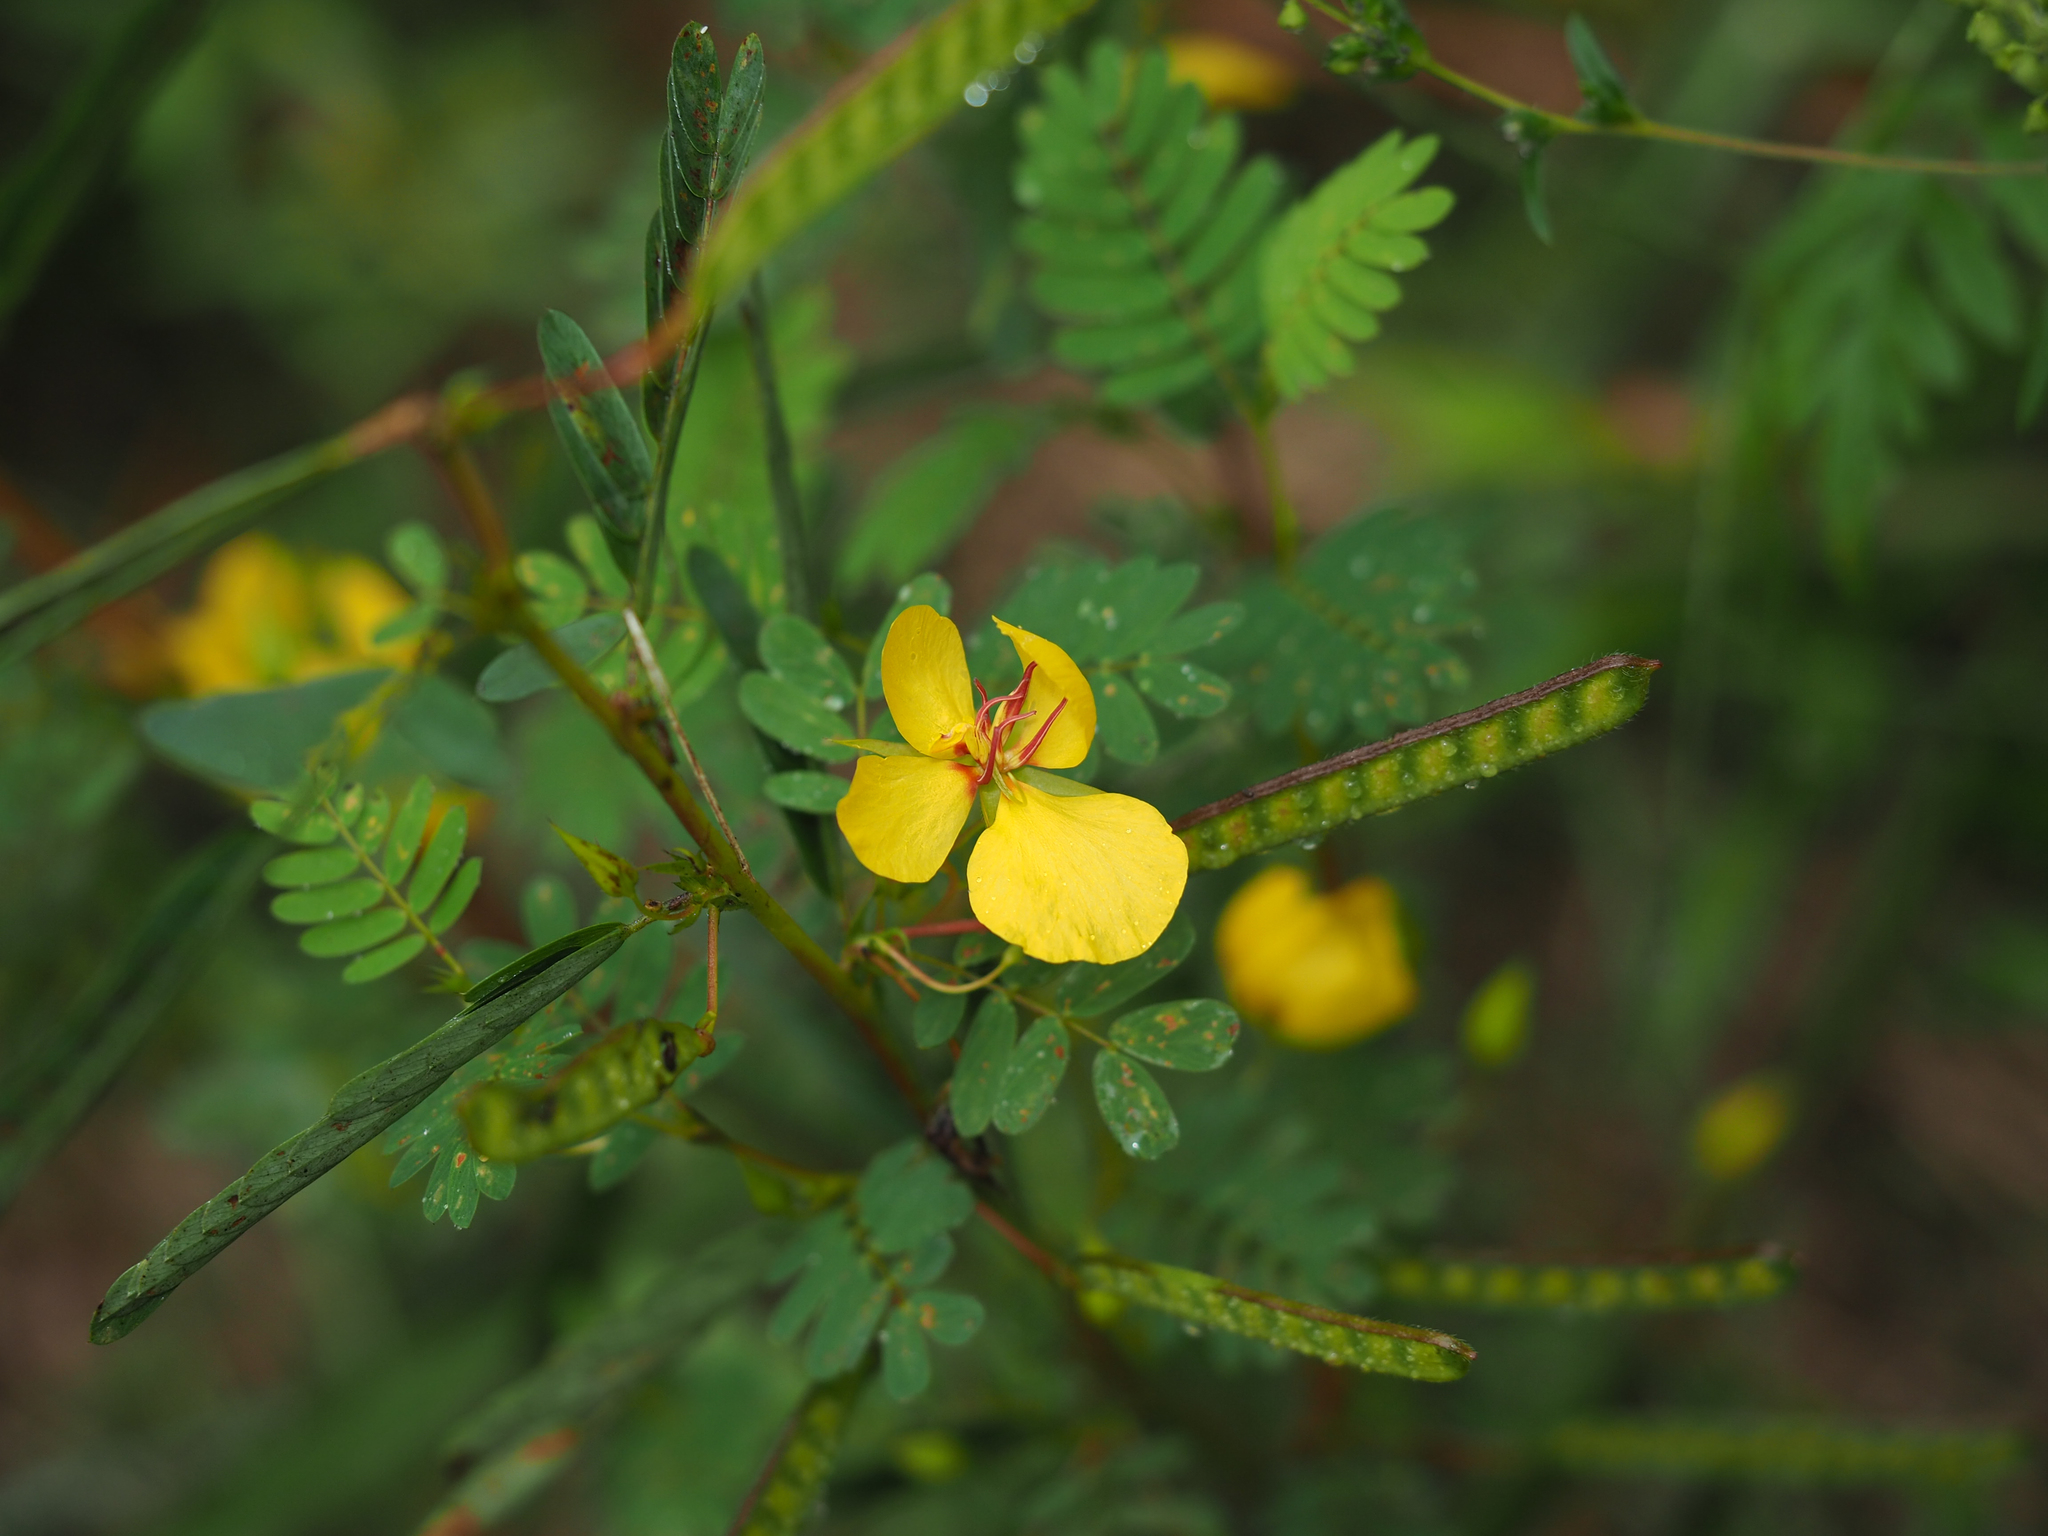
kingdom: Plantae
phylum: Tracheophyta
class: Magnoliopsida
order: Fabales
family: Fabaceae
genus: Chamaecrista
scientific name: Chamaecrista fasciculata
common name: Golden cassia
